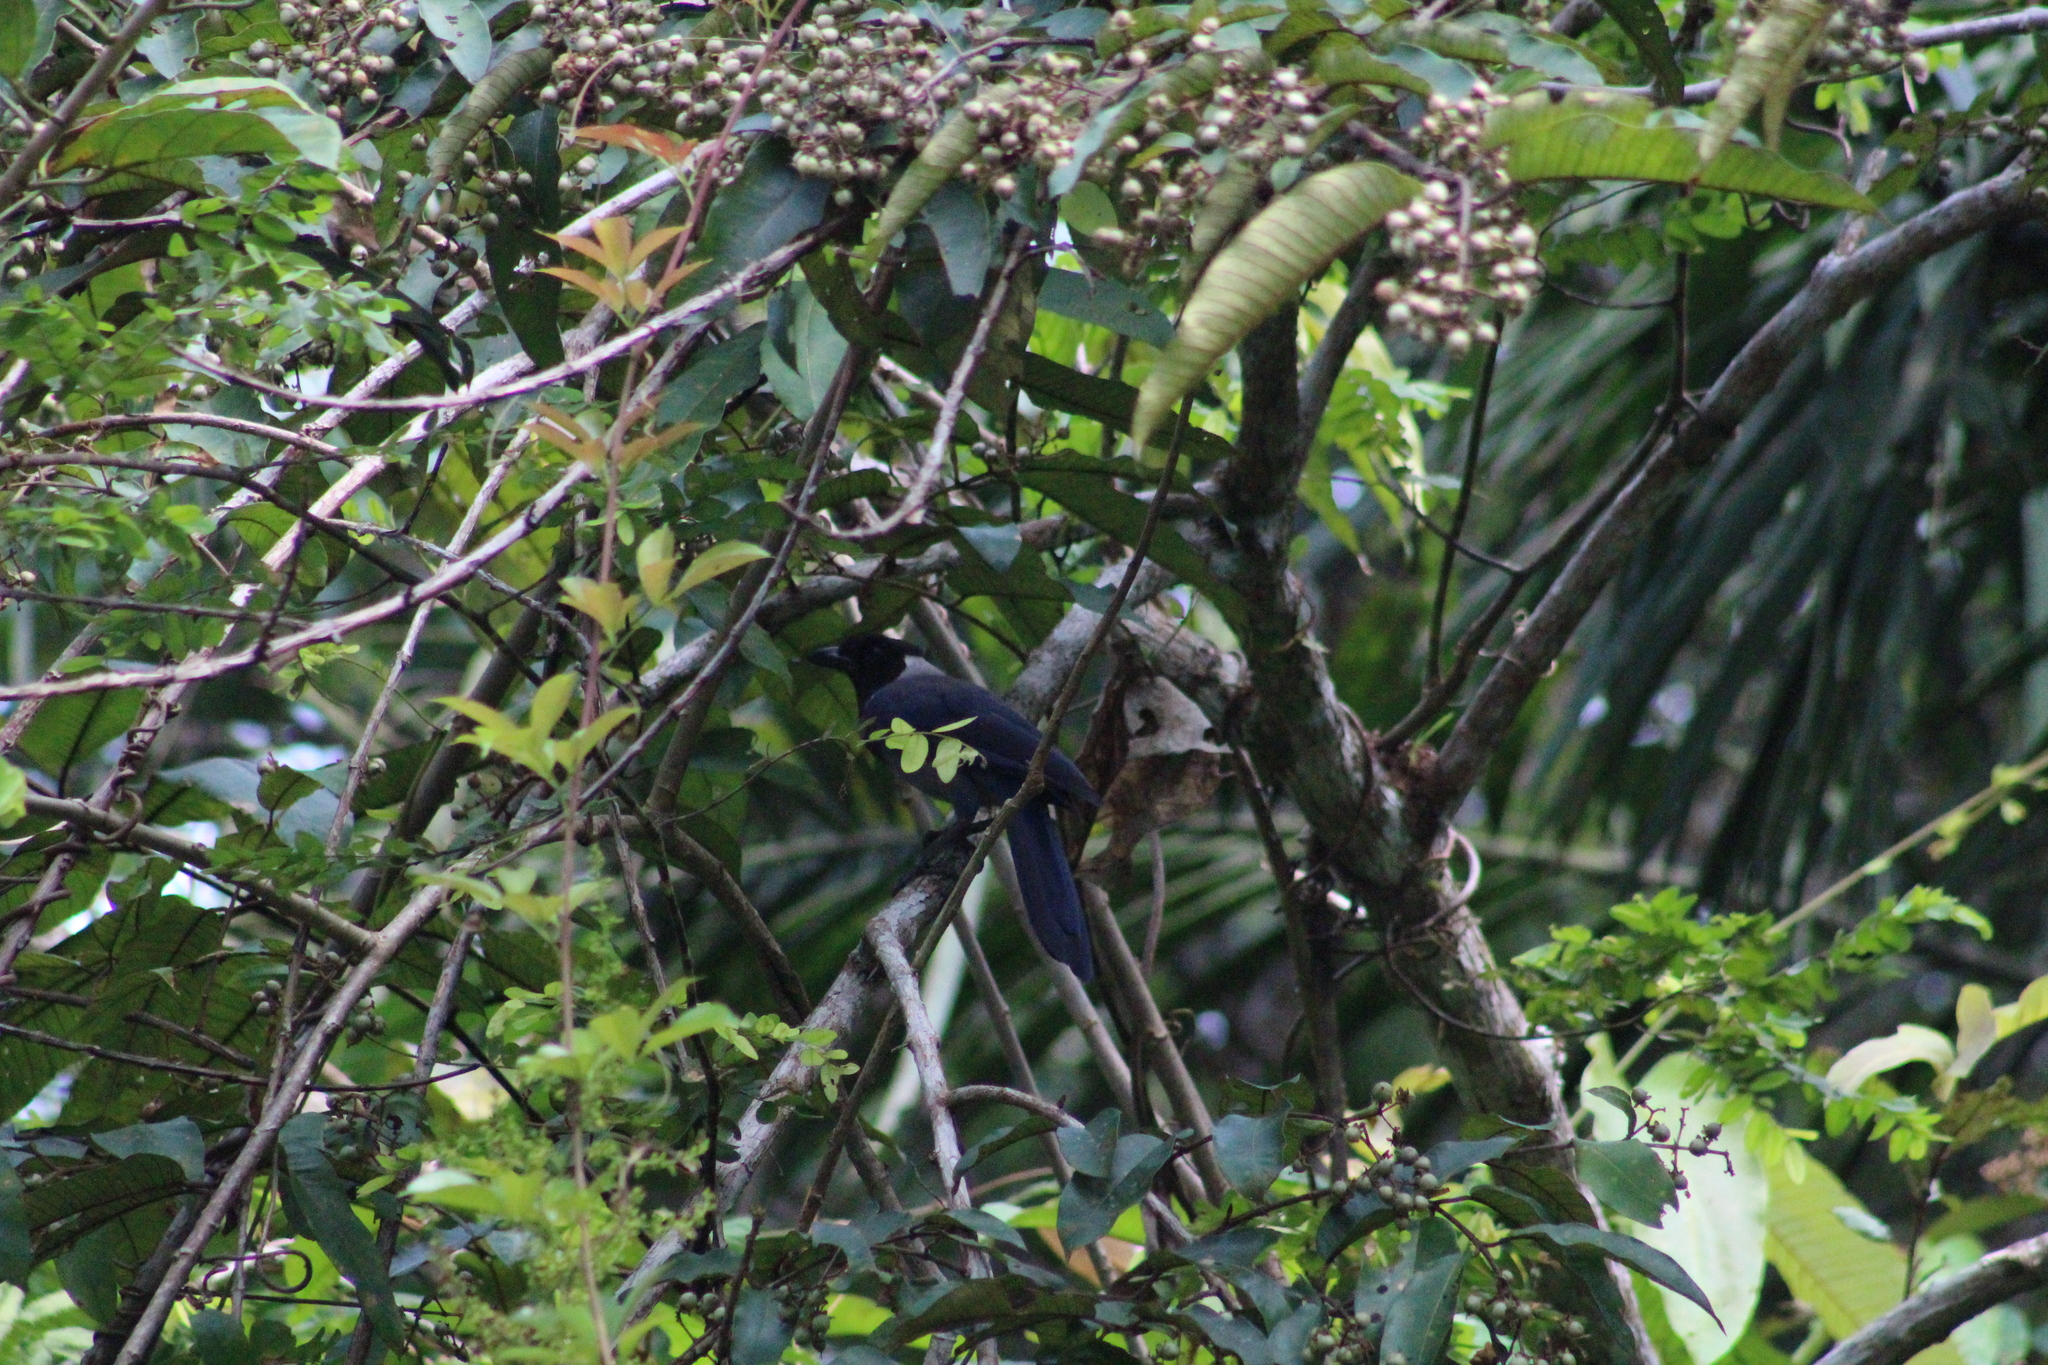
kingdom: Animalia
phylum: Chordata
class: Aves
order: Passeriformes
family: Corvidae
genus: Cyanocorax
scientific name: Cyanocorax violaceus
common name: Violaceous jay
